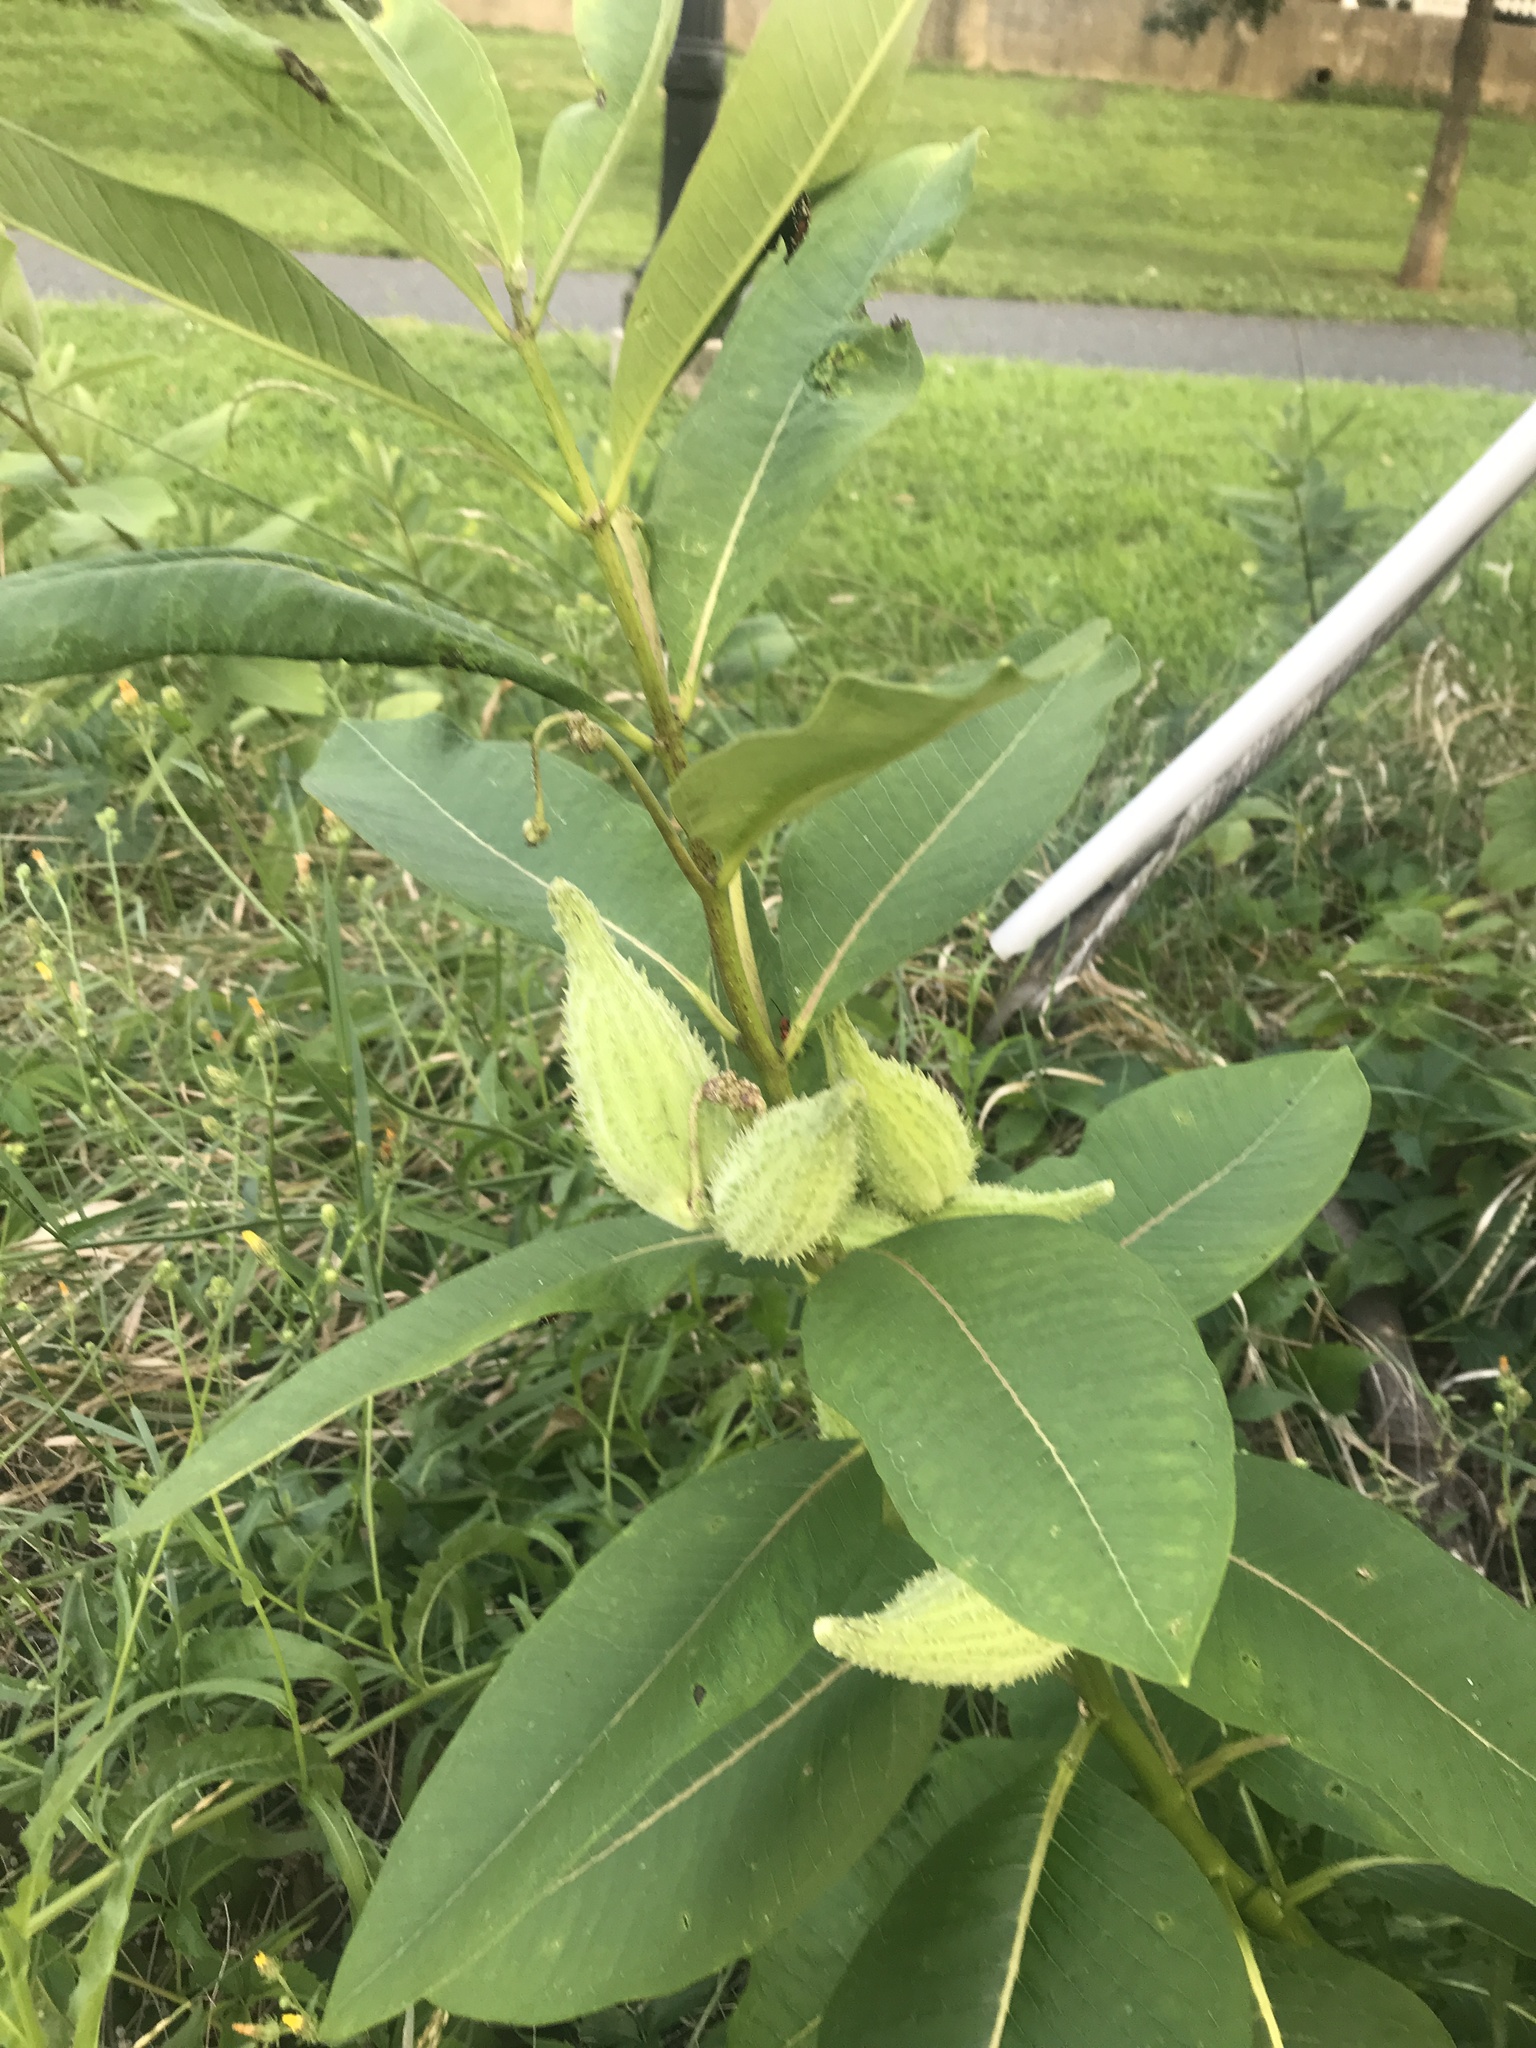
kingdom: Plantae
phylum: Tracheophyta
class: Magnoliopsida
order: Gentianales
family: Apocynaceae
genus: Asclepias
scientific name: Asclepias syriaca
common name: Common milkweed
